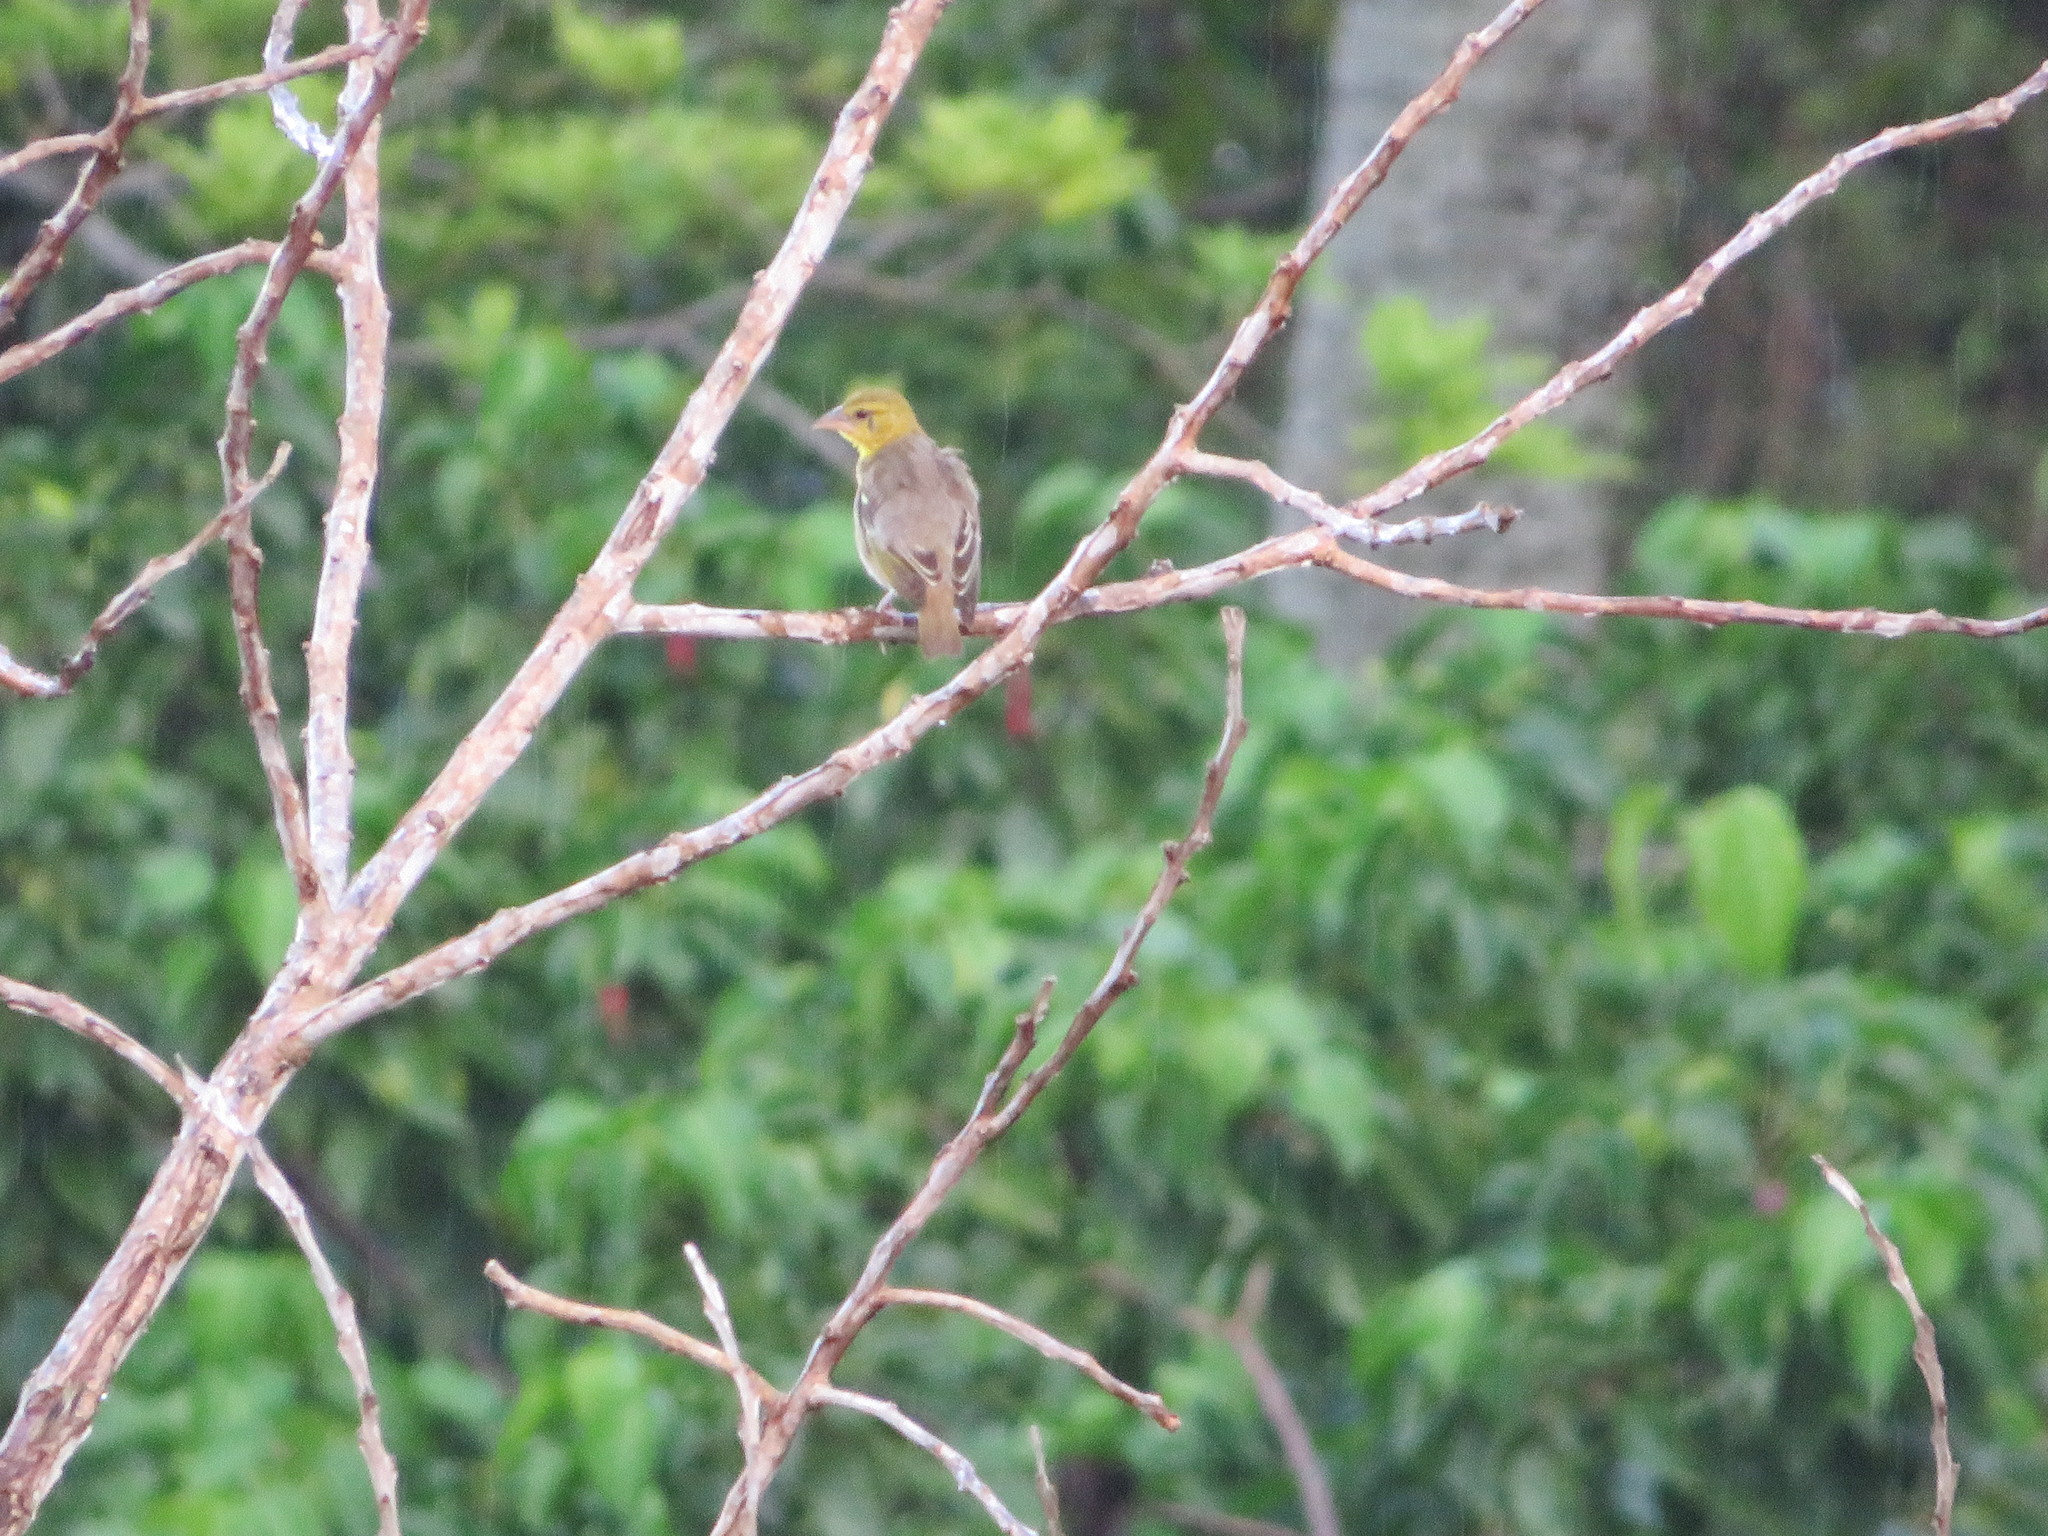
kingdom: Animalia
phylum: Chordata
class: Aves
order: Passeriformes
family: Ploceidae
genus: Ploceus
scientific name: Ploceus cucullatus
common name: Village weaver
